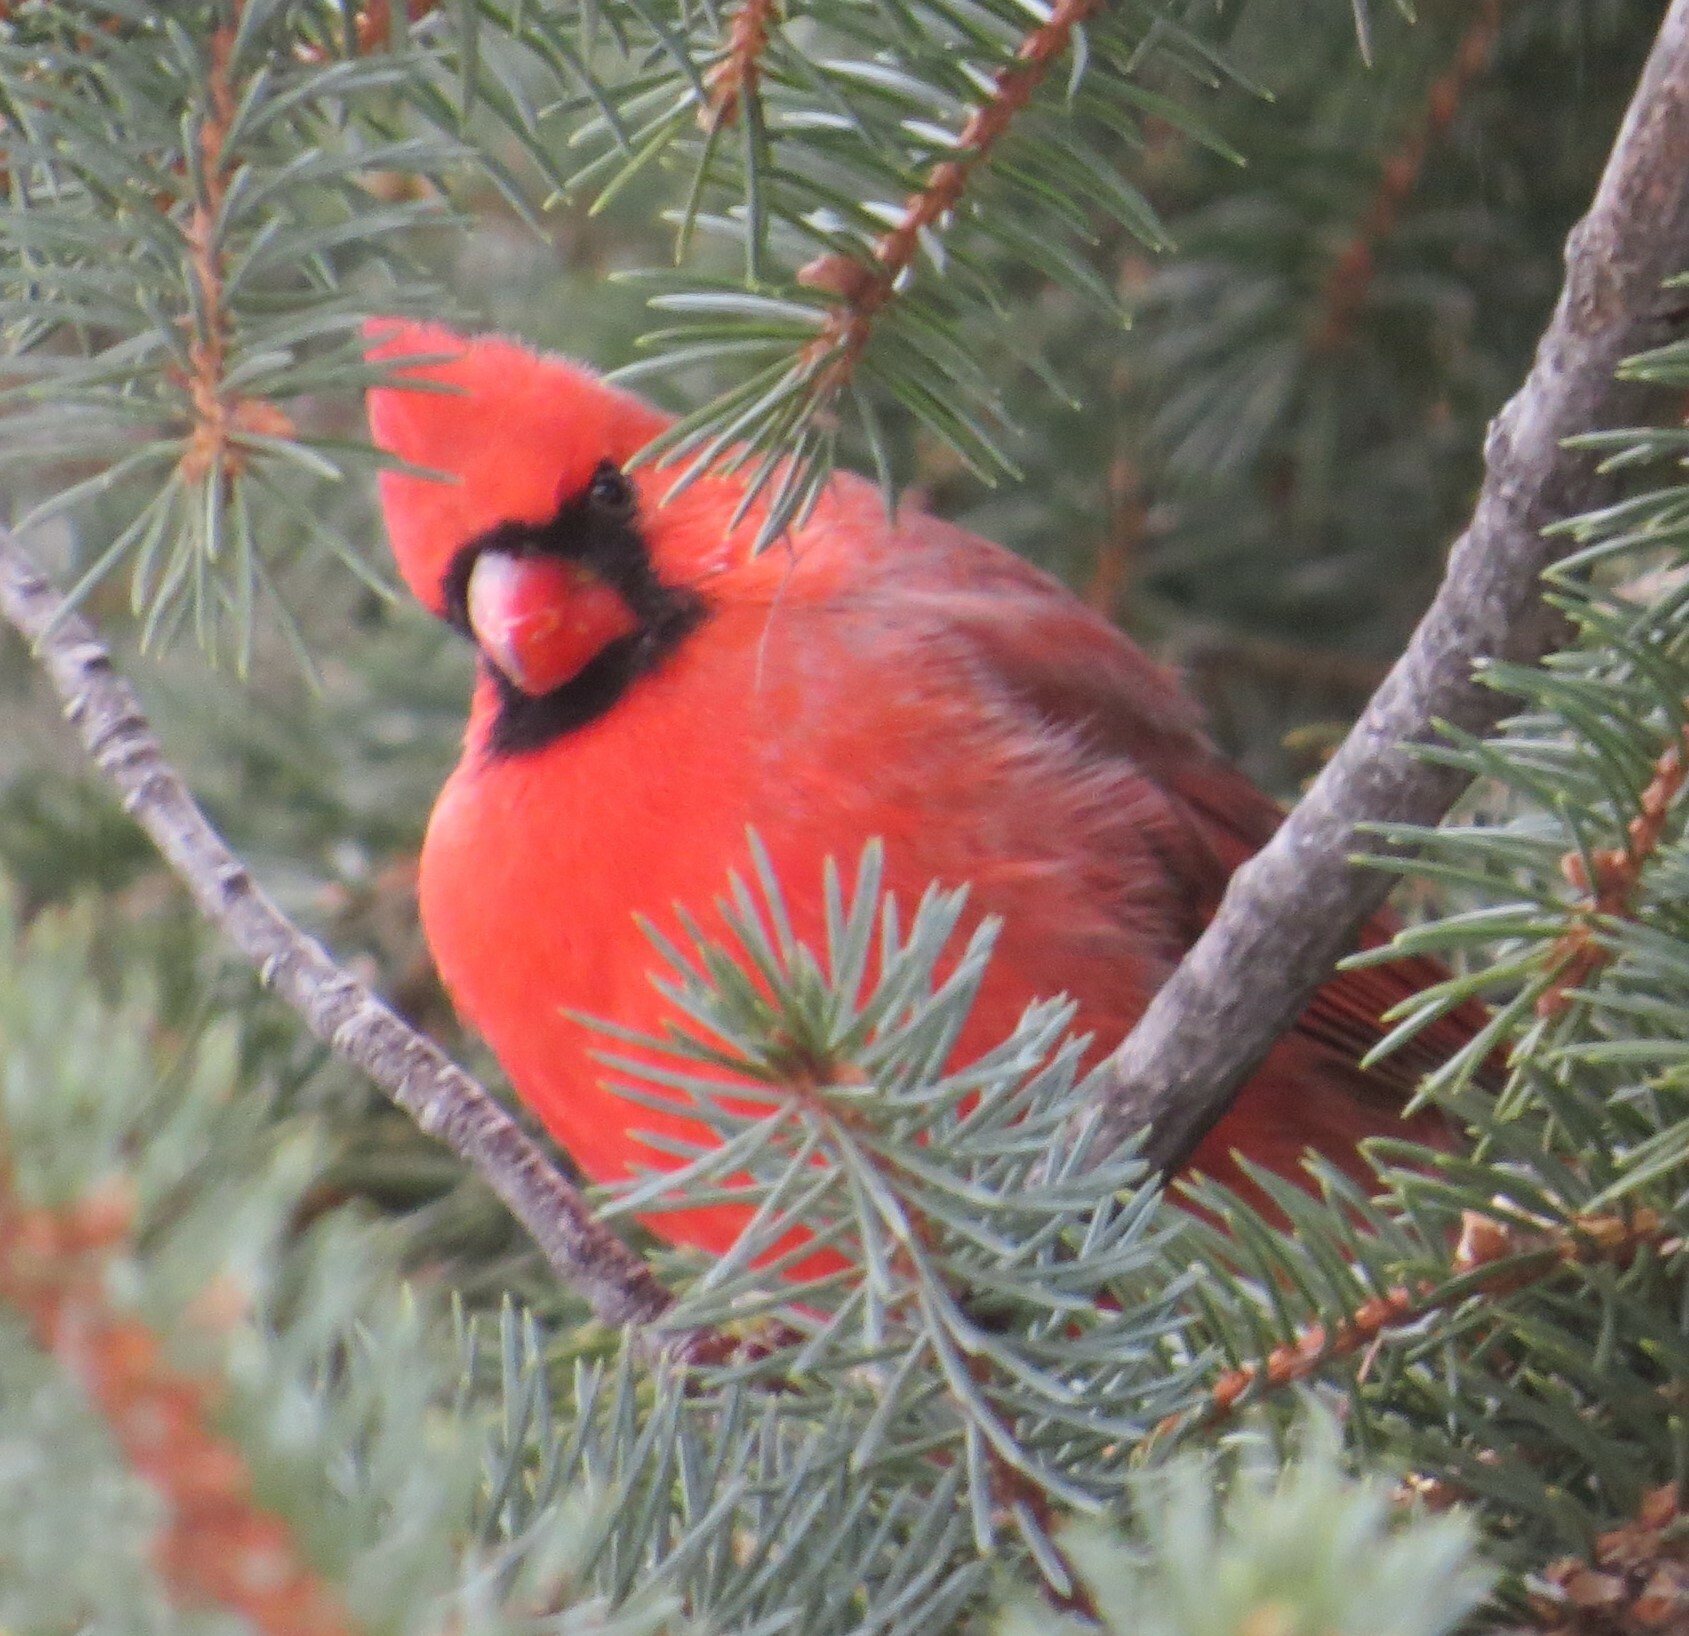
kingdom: Animalia
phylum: Chordata
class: Aves
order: Passeriformes
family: Cardinalidae
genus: Cardinalis
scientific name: Cardinalis cardinalis
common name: Northern cardinal
